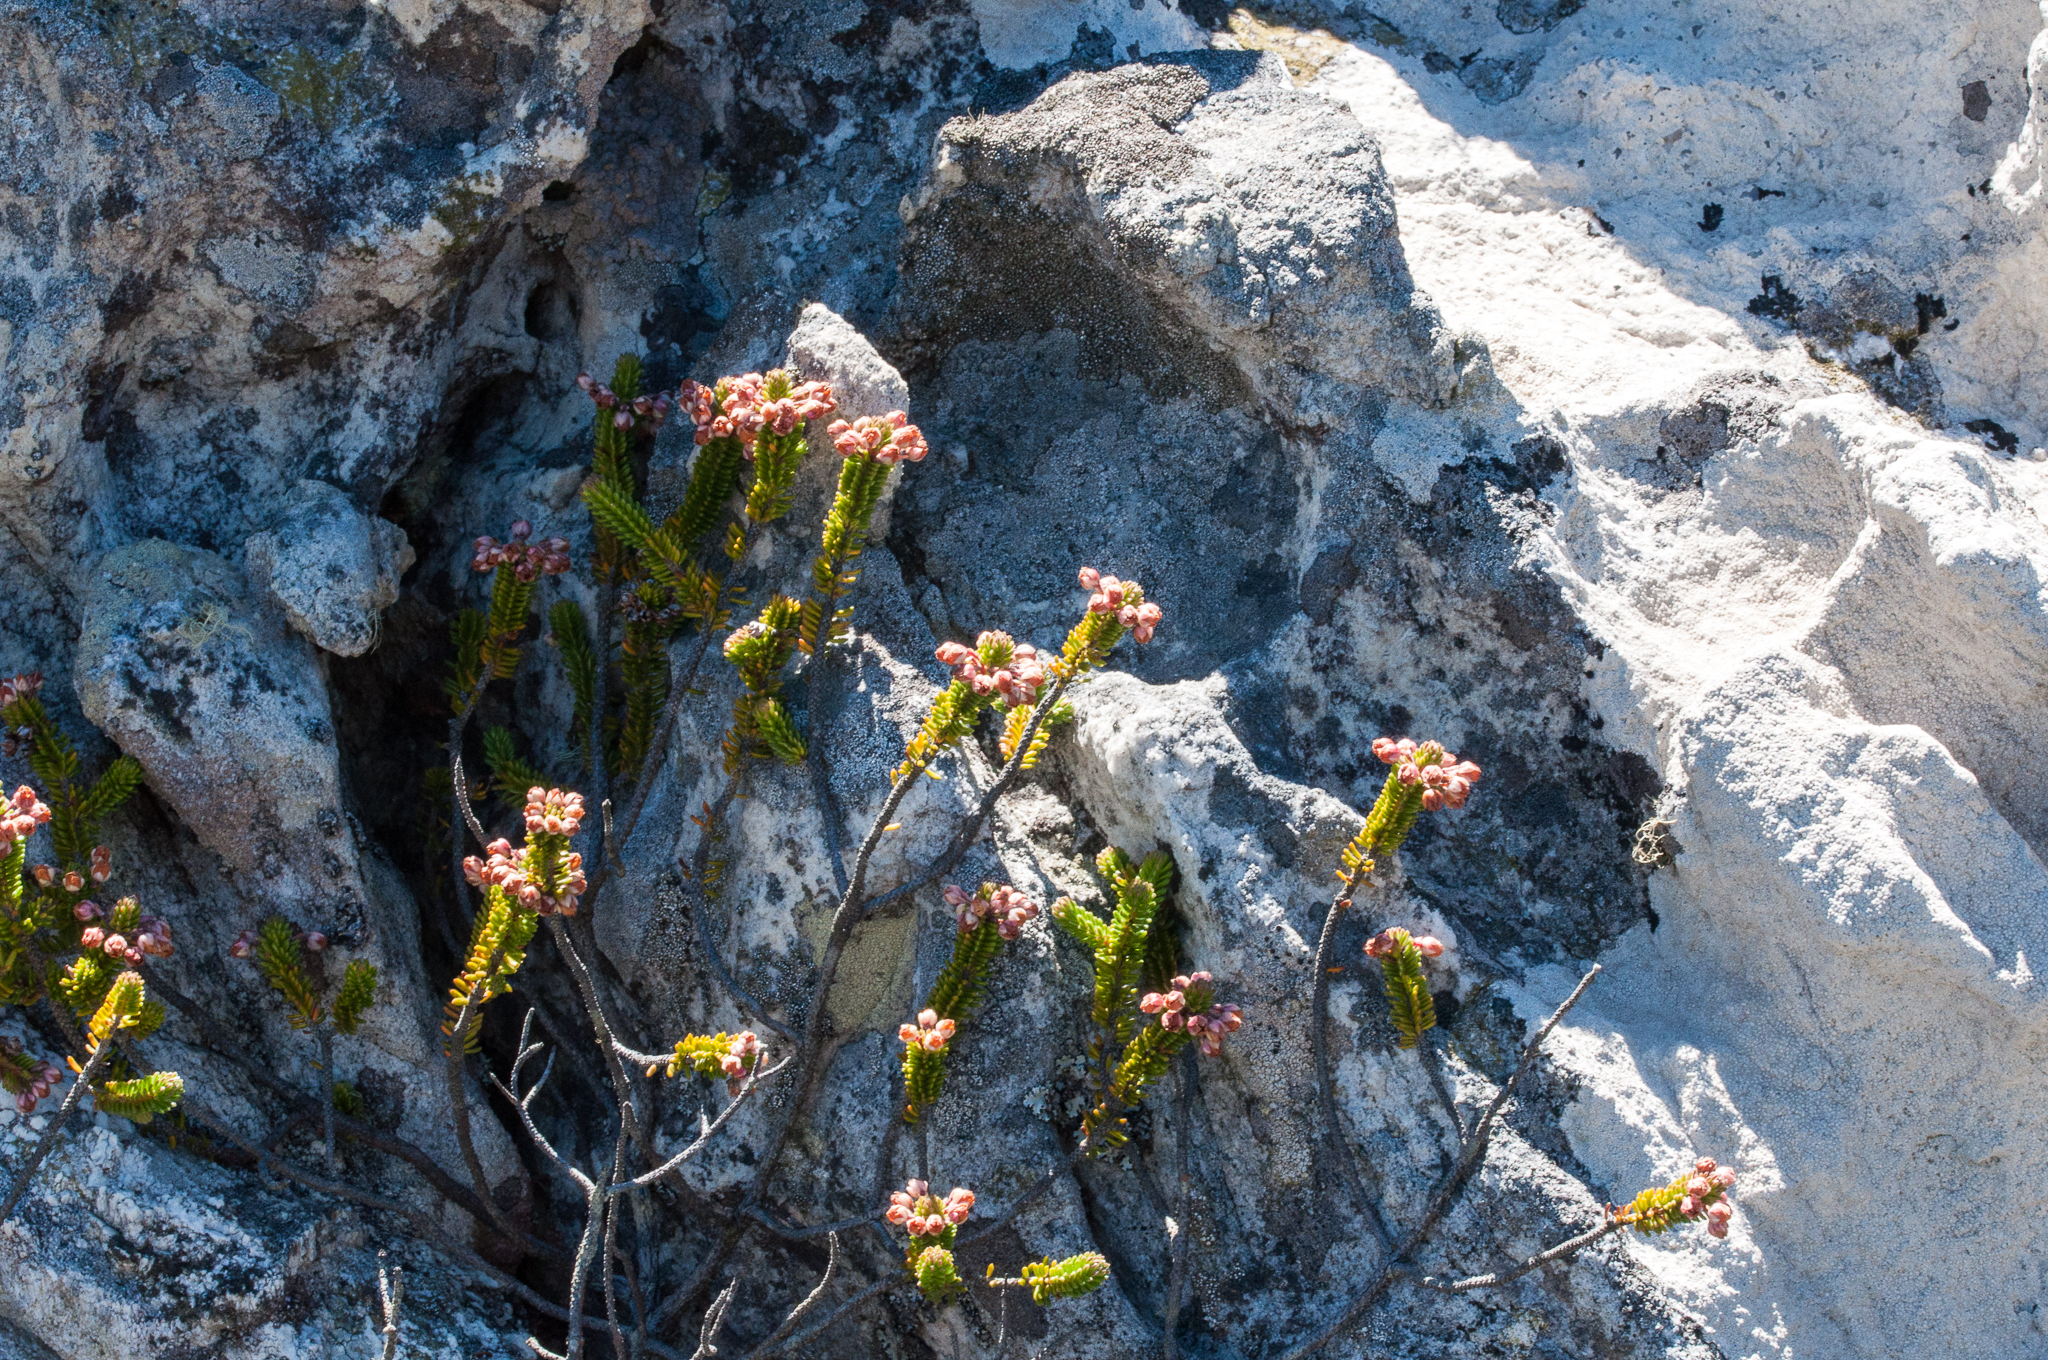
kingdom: Plantae
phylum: Tracheophyta
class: Magnoliopsida
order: Ericales
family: Ericaceae
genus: Erica
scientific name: Erica stokoei
